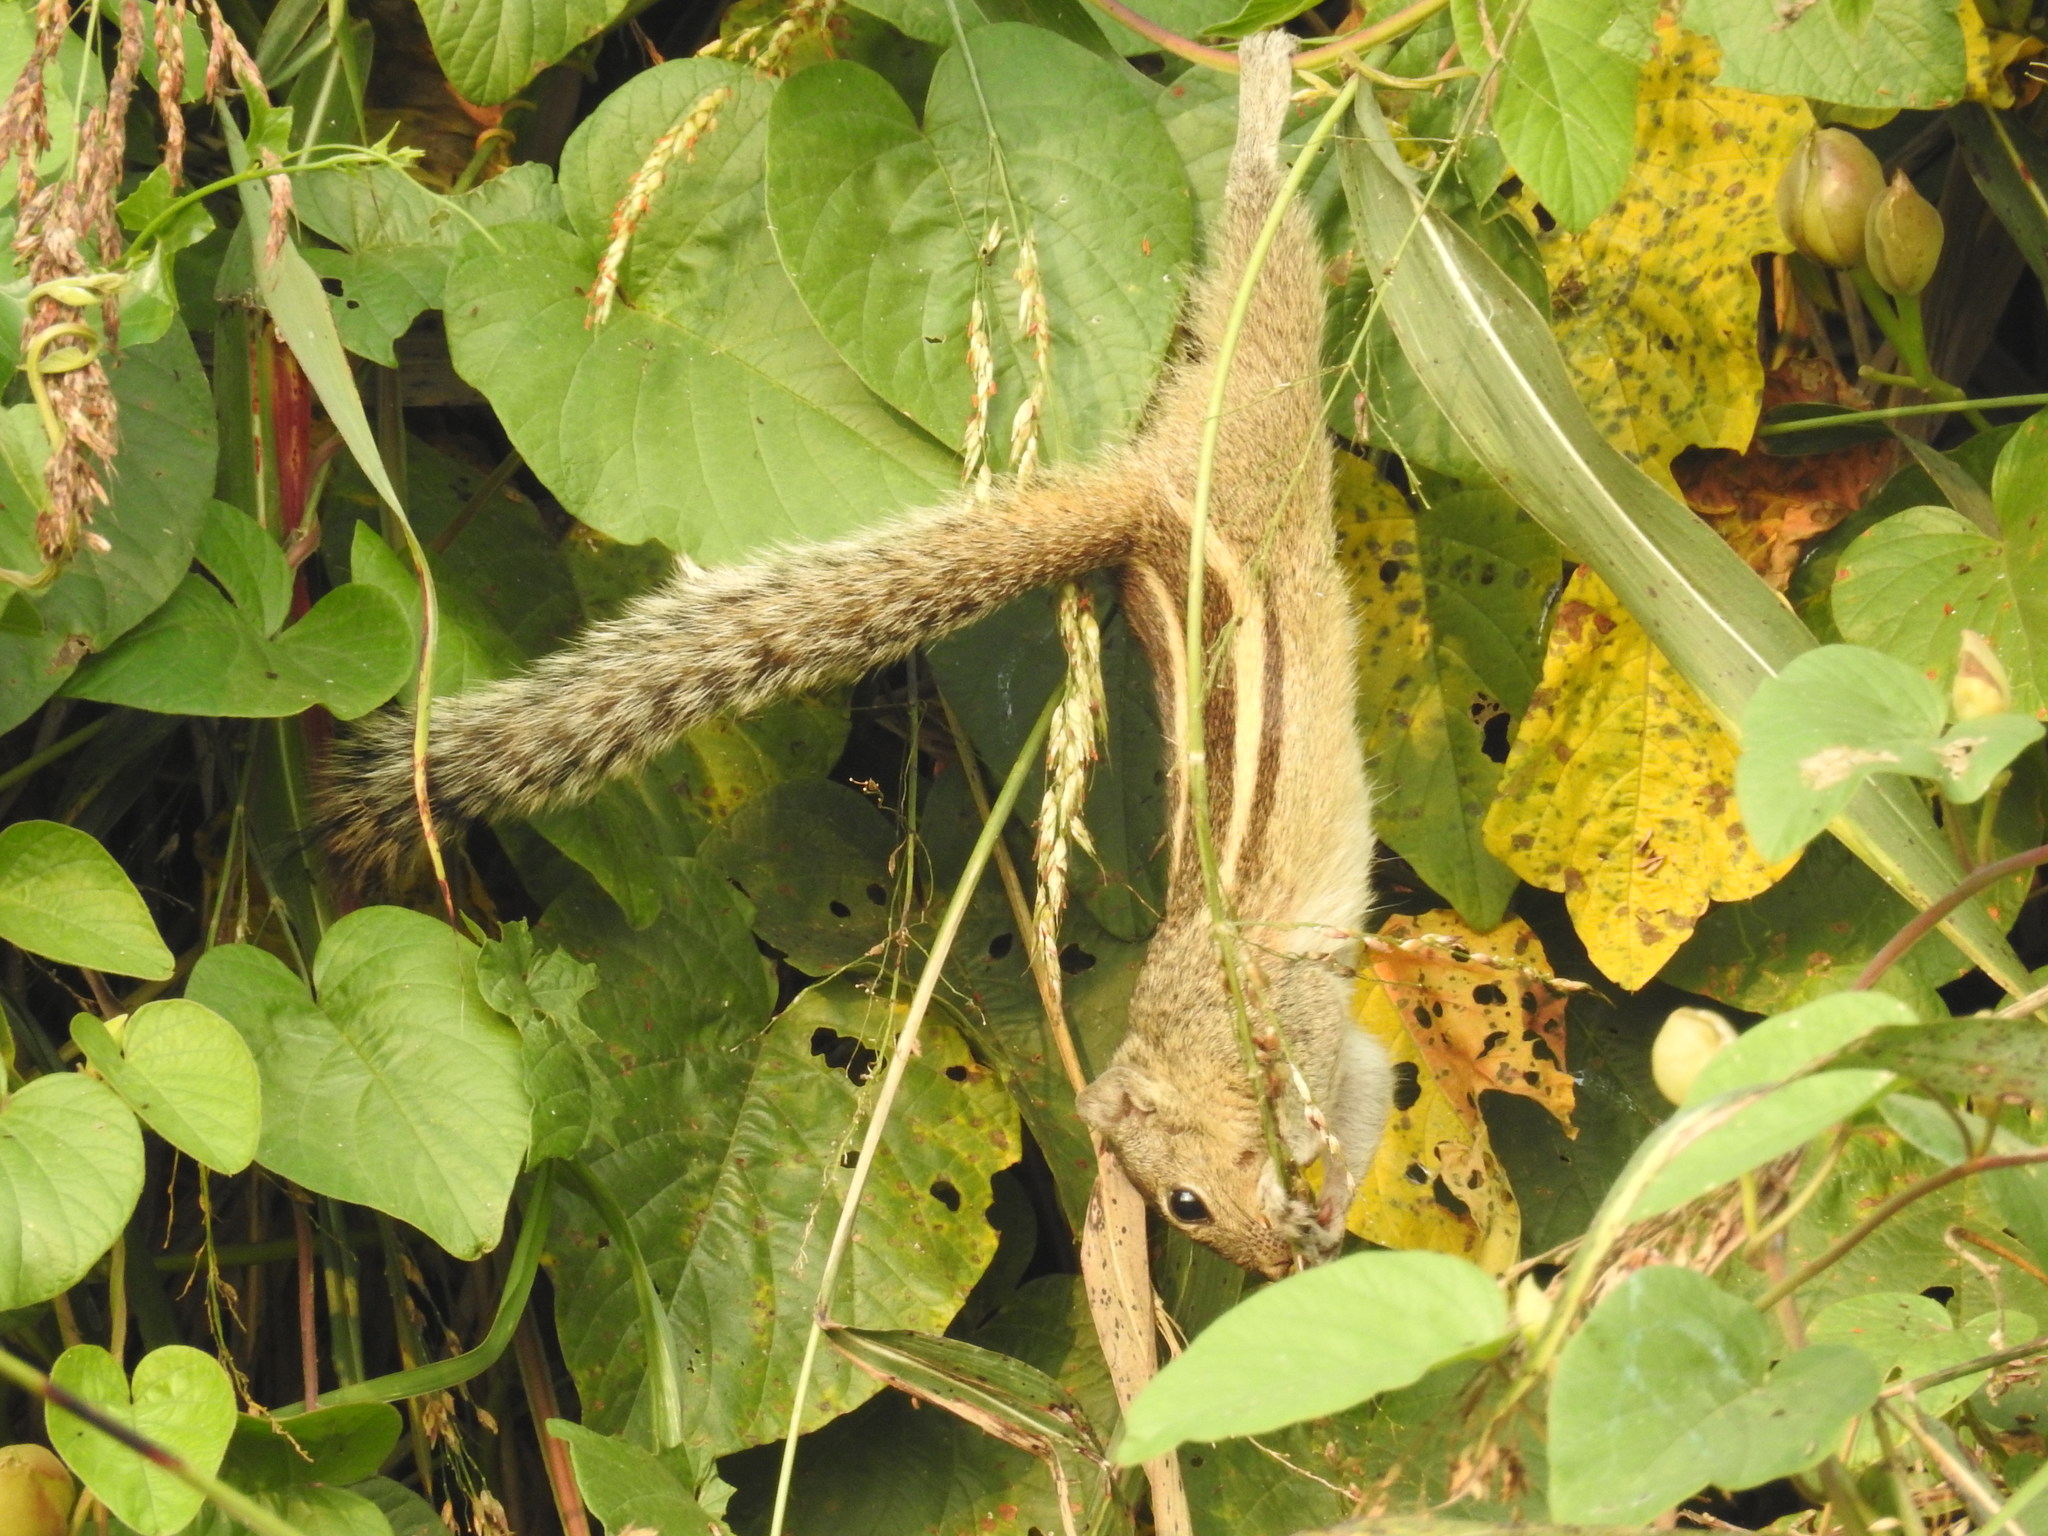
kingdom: Animalia
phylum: Chordata
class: Mammalia
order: Rodentia
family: Sciuridae
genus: Funambulus
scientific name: Funambulus palmarum
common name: Indian palm squirrel
